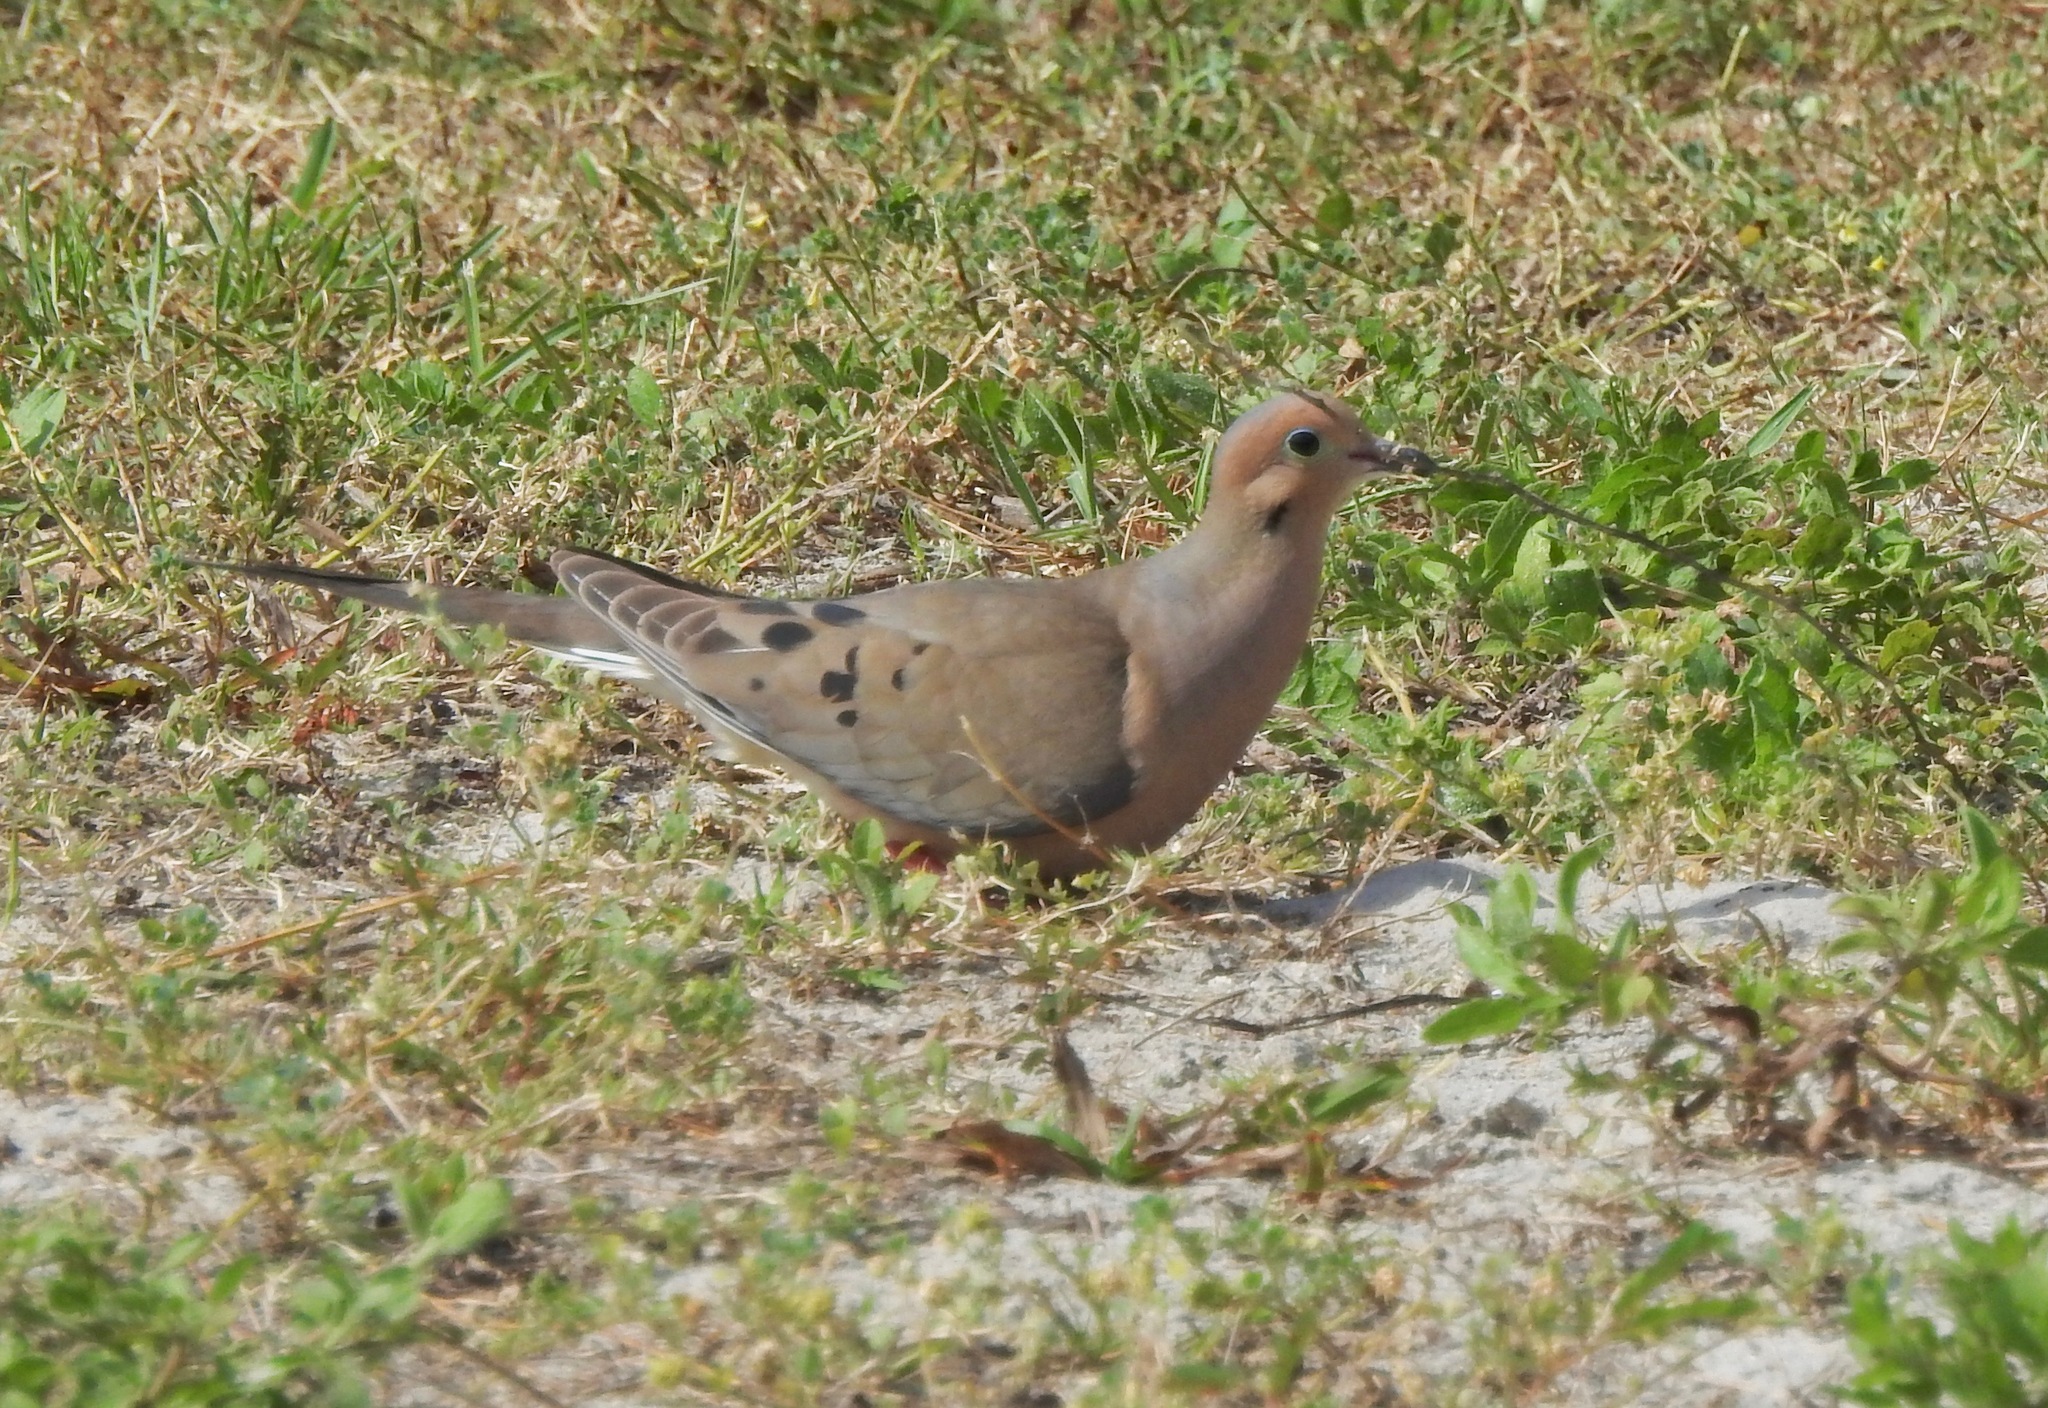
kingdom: Animalia
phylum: Chordata
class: Aves
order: Columbiformes
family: Columbidae
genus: Zenaida
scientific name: Zenaida macroura
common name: Mourning dove
